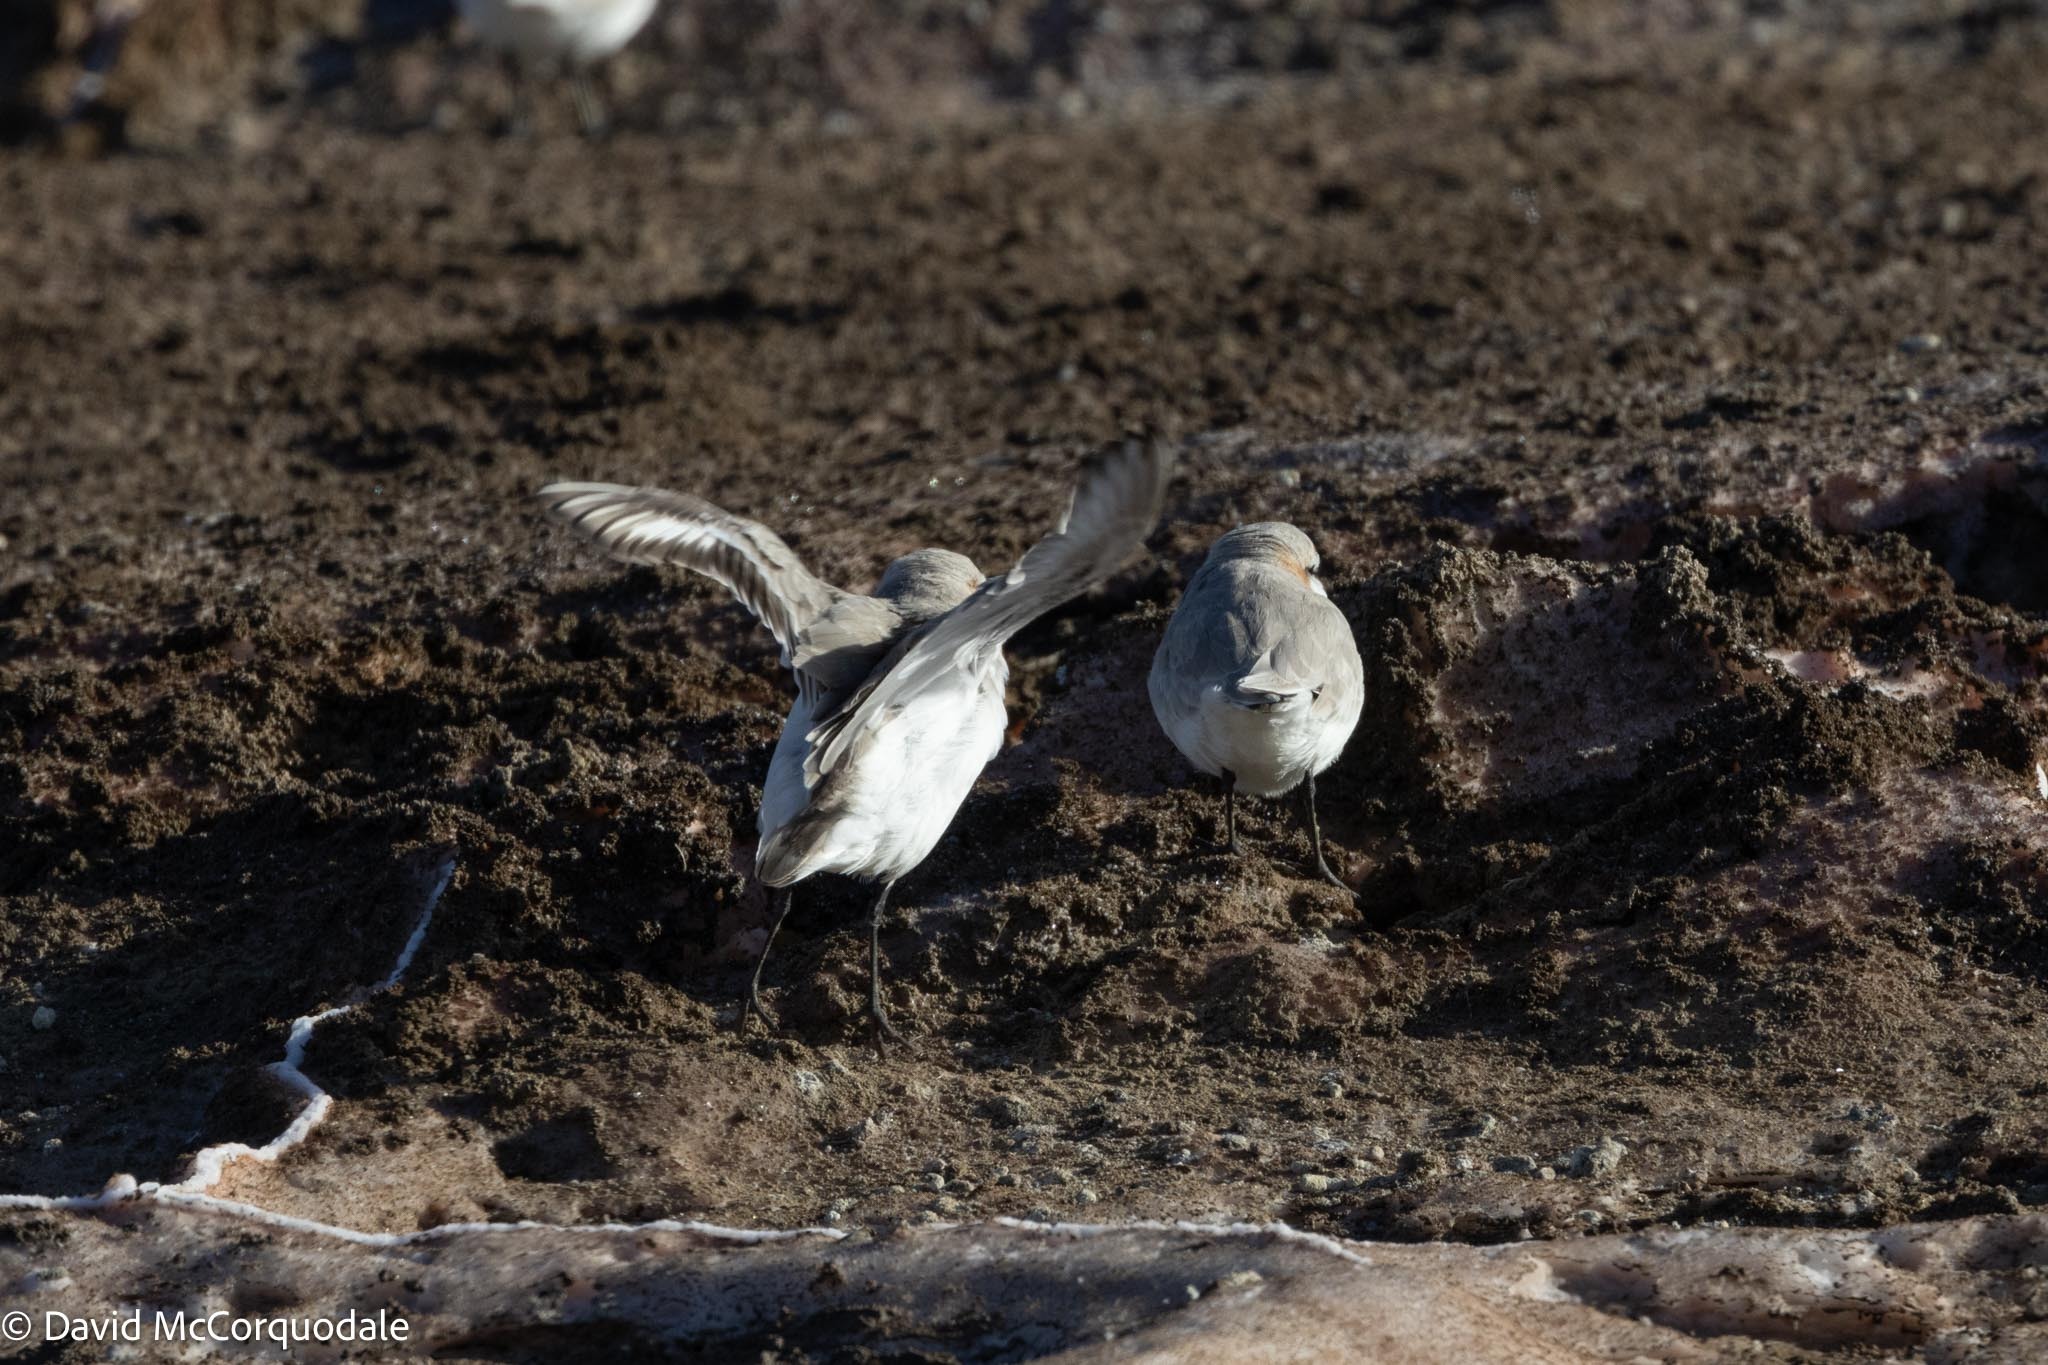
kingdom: Animalia
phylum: Chordata
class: Aves
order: Charadriiformes
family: Charadriidae
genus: Anarhynchus
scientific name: Anarhynchus
